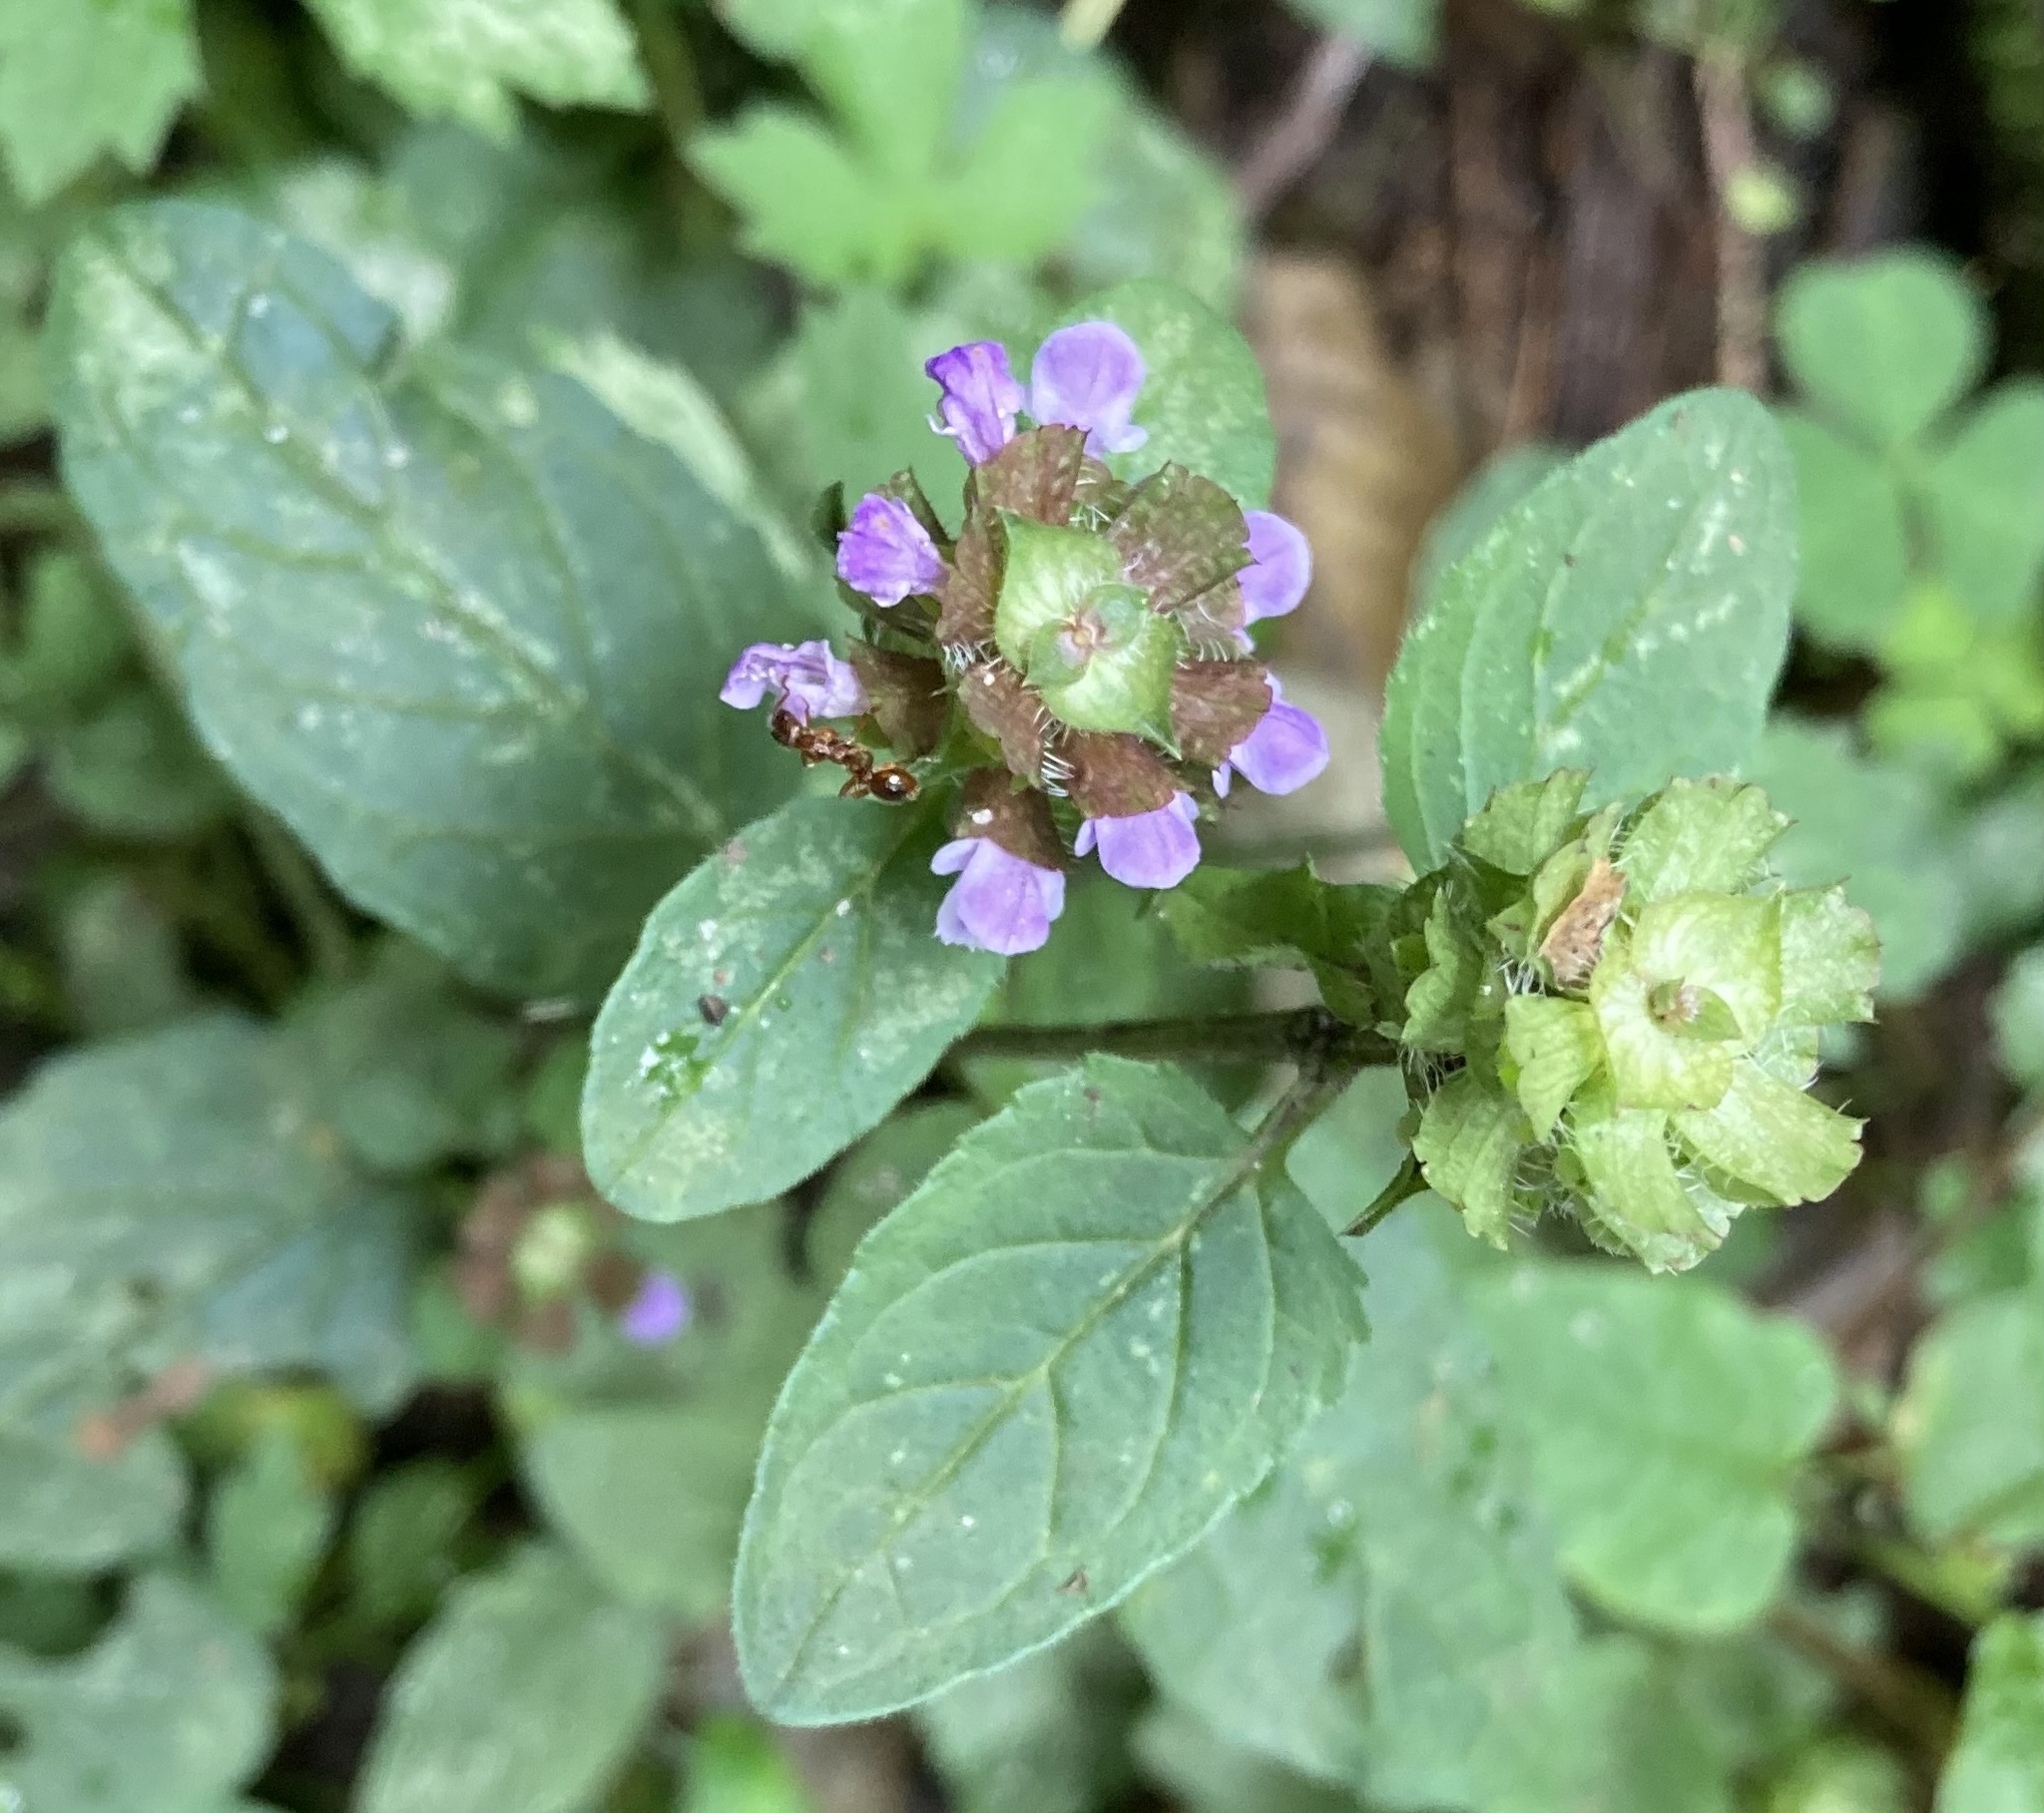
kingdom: Plantae
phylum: Tracheophyta
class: Magnoliopsida
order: Lamiales
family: Lamiaceae
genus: Prunella
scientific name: Prunella vulgaris
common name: Heal-all
